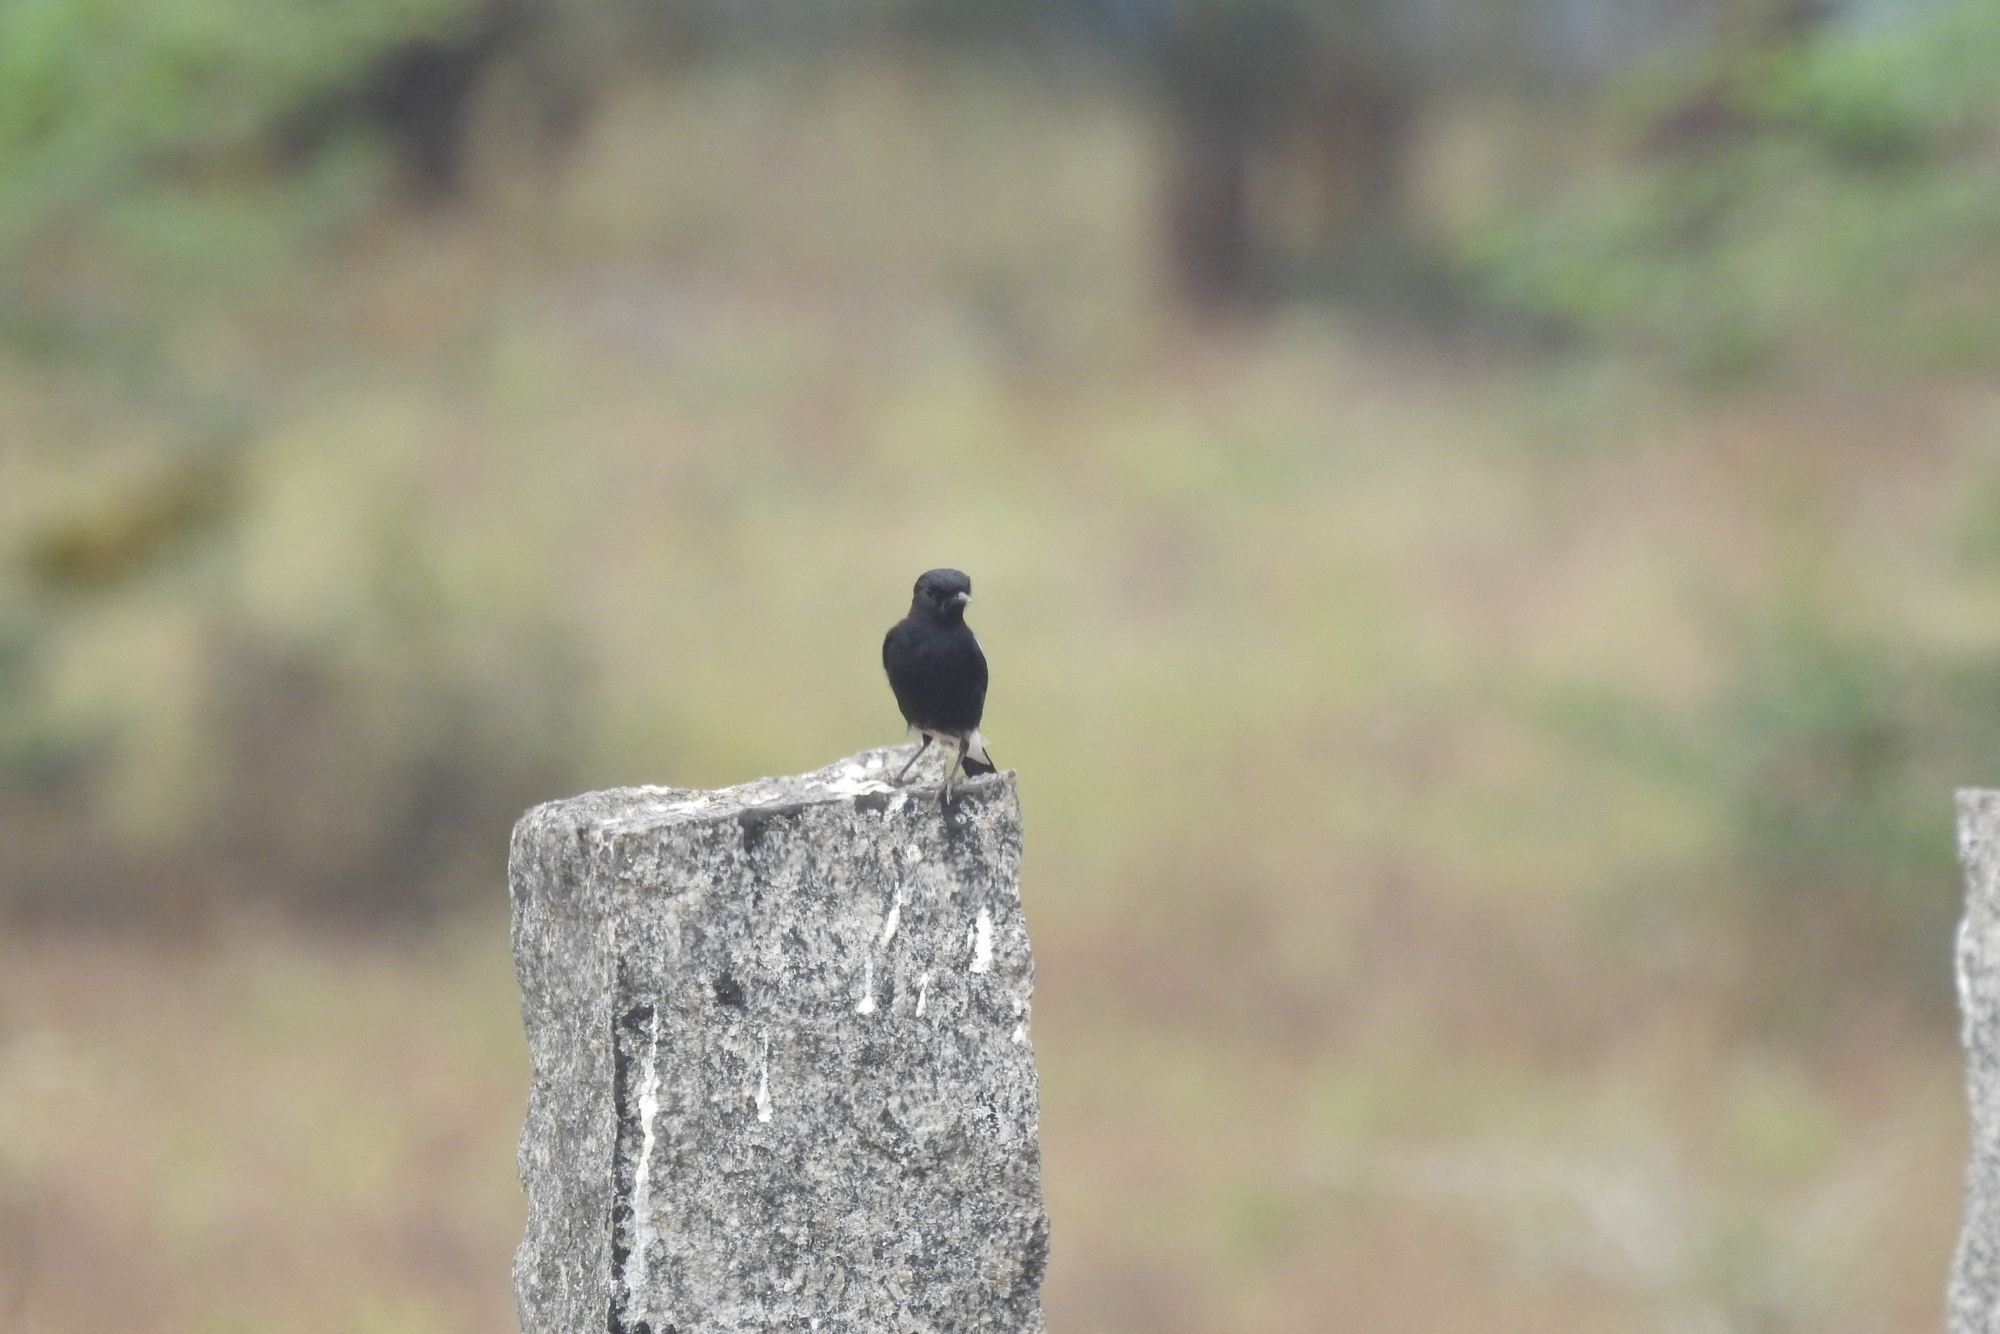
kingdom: Animalia
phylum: Chordata
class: Aves
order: Passeriformes
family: Muscicapidae
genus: Saxicola
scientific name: Saxicola caprata
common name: Pied bush chat
